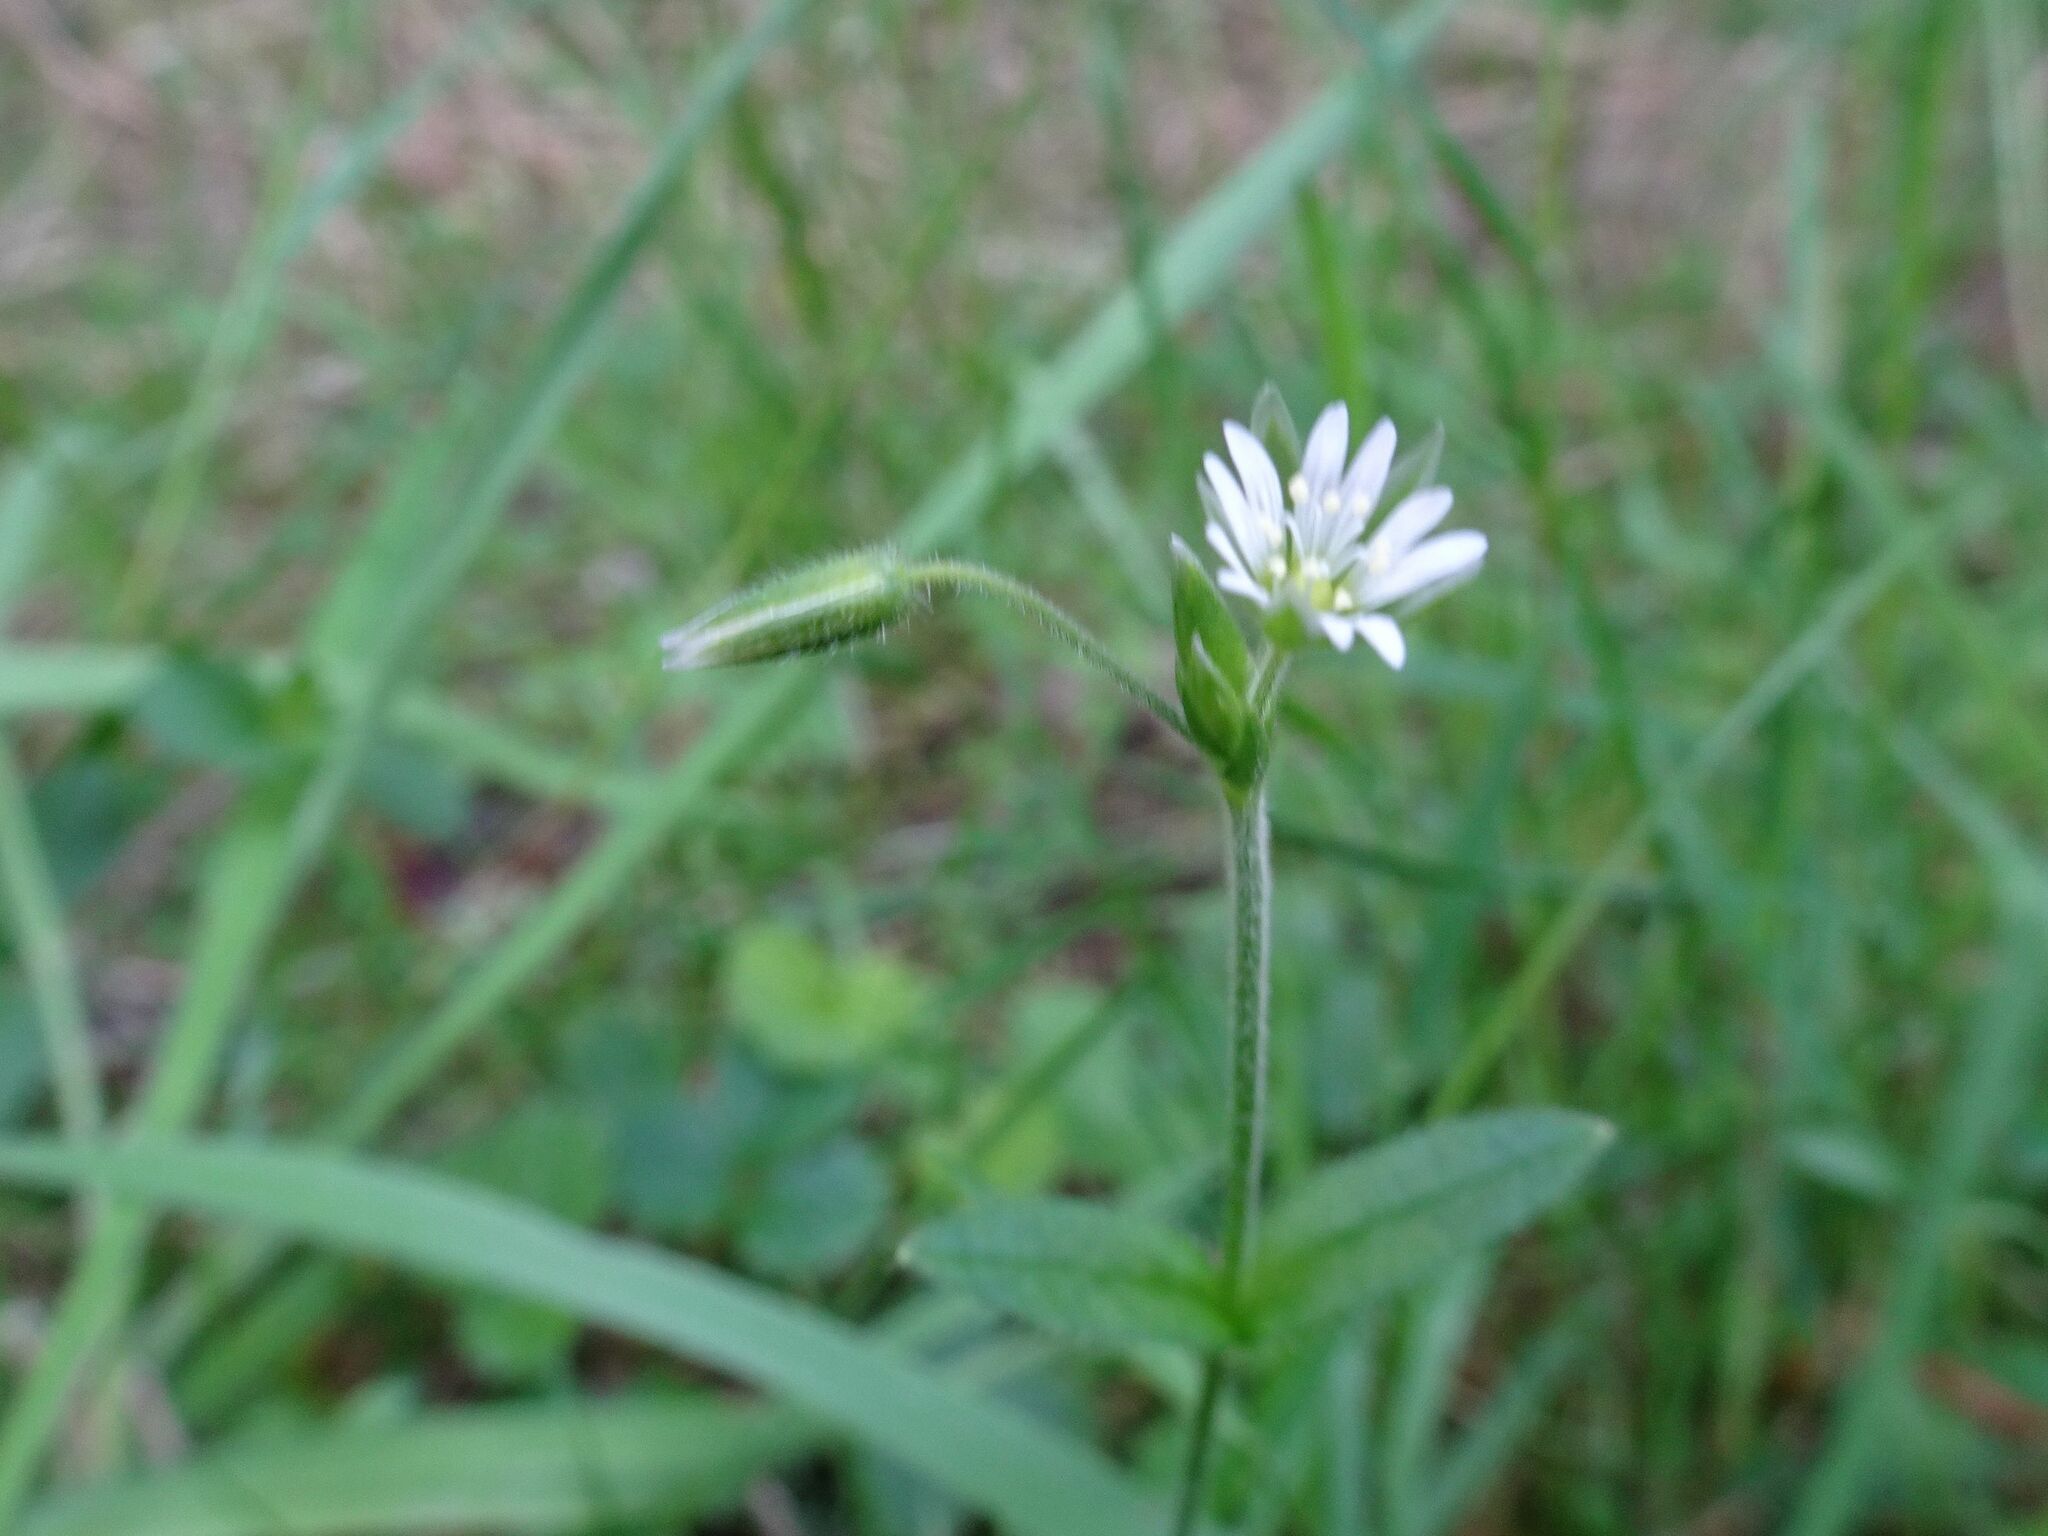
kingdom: Plantae
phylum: Tracheophyta
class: Magnoliopsida
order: Caryophyllales
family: Caryophyllaceae
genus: Cerastium
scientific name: Cerastium holosteoides
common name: Big chickweed
